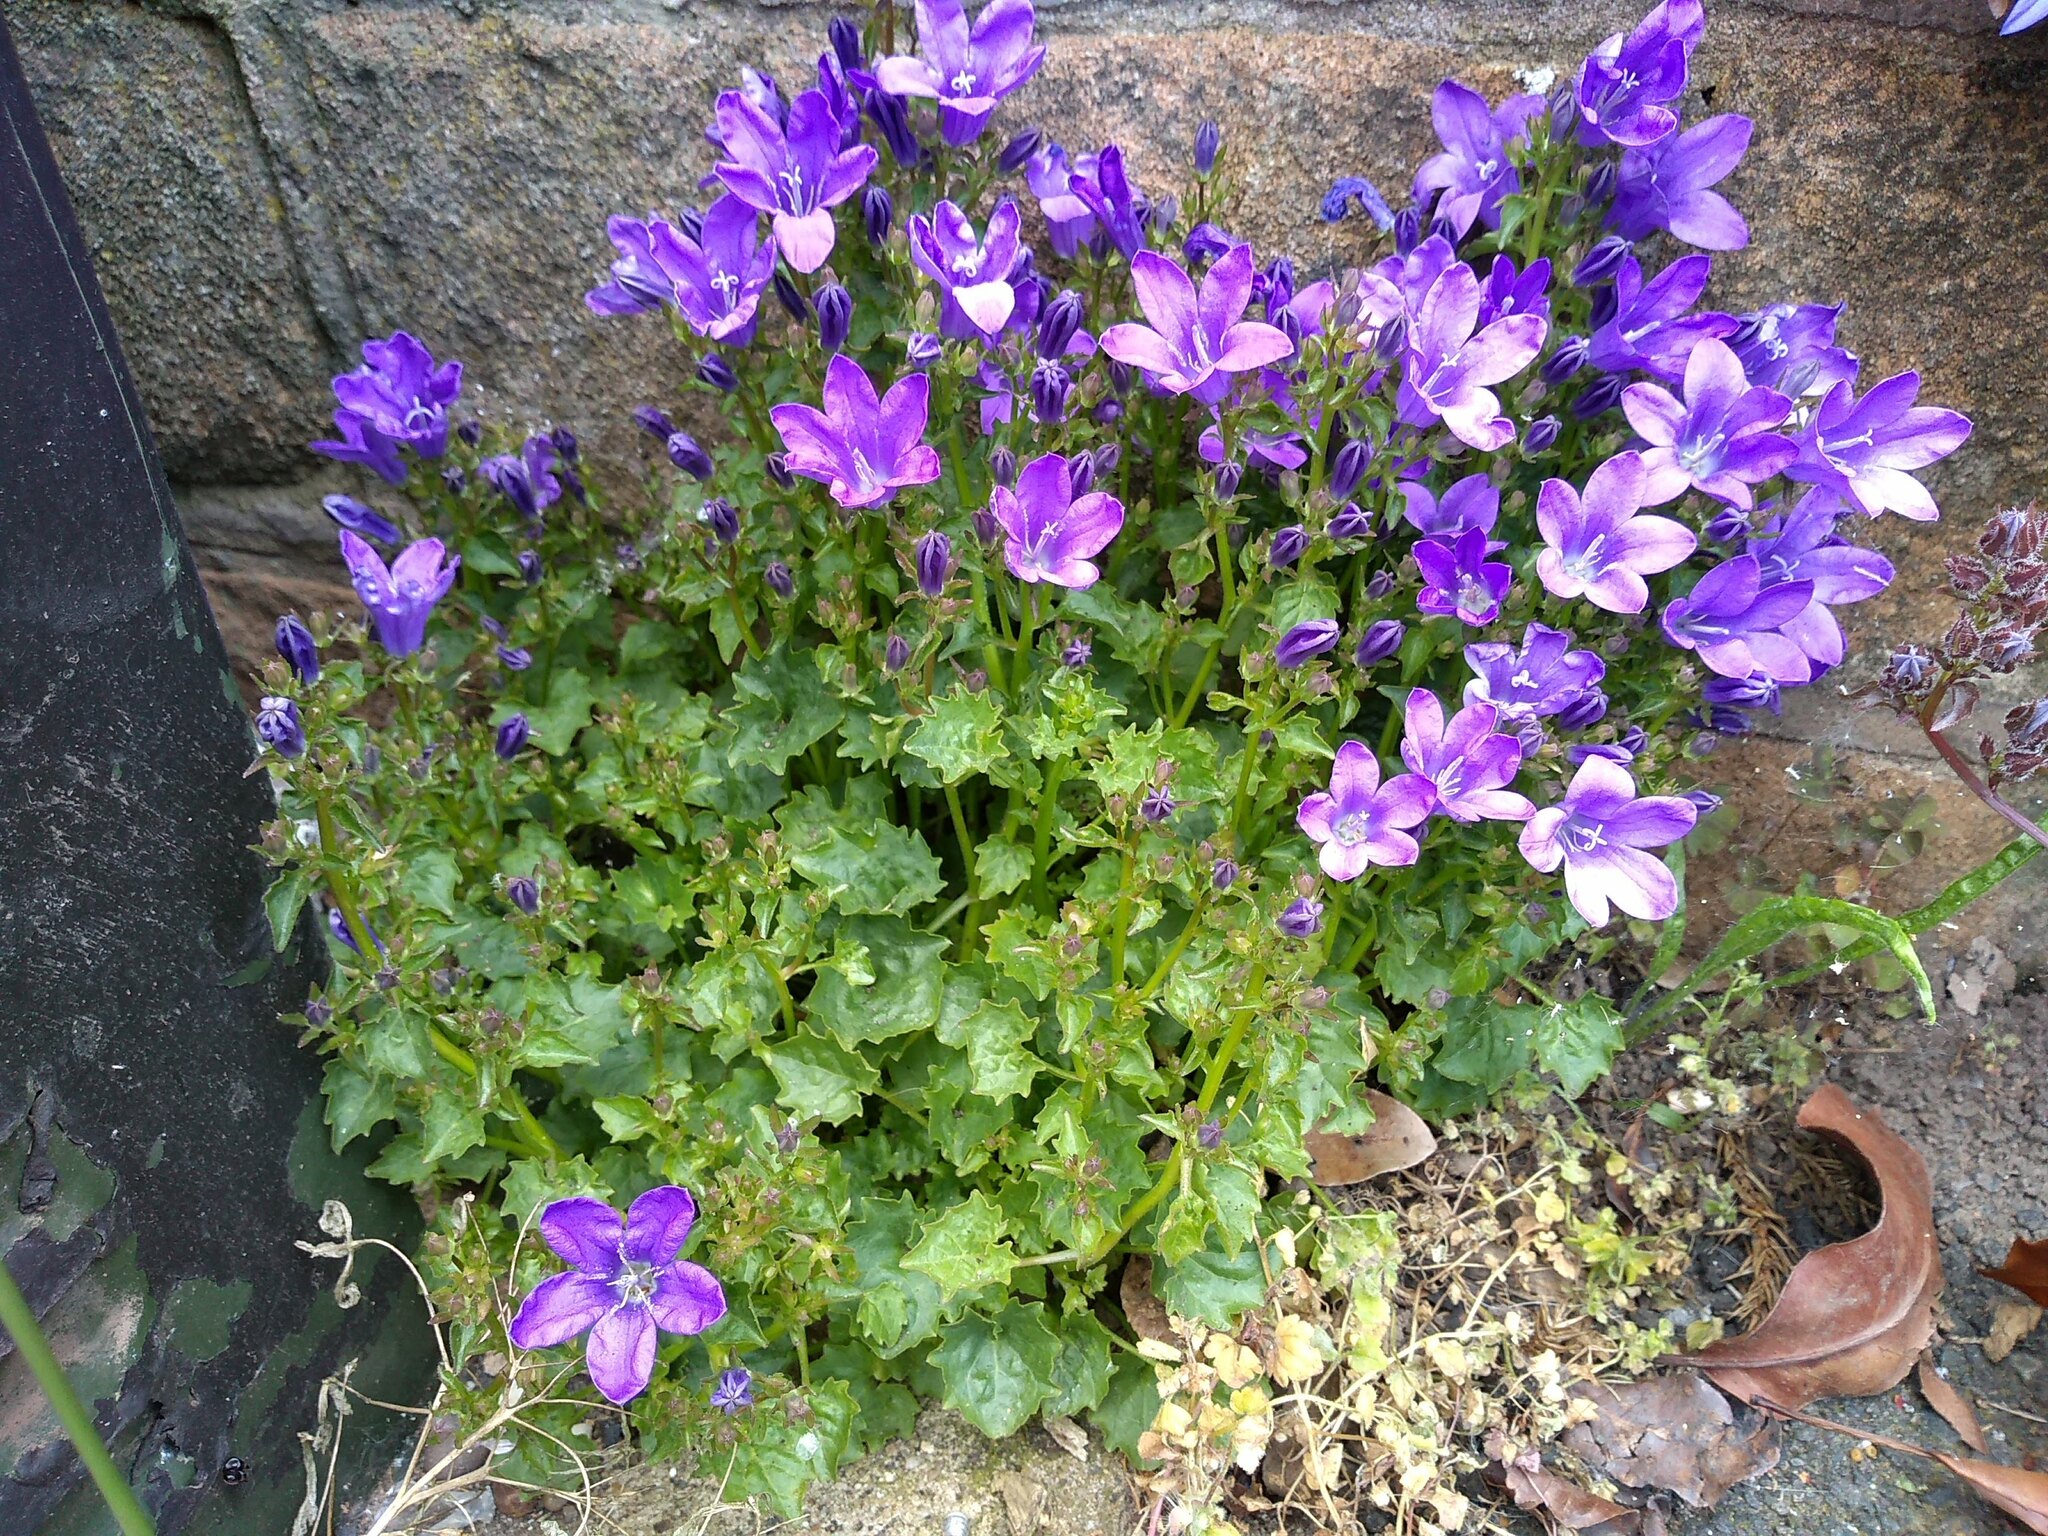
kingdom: Plantae
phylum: Tracheophyta
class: Magnoliopsida
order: Asterales
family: Campanulaceae
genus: Campanula
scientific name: Campanula portenschlagiana
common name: Adria bellflower
